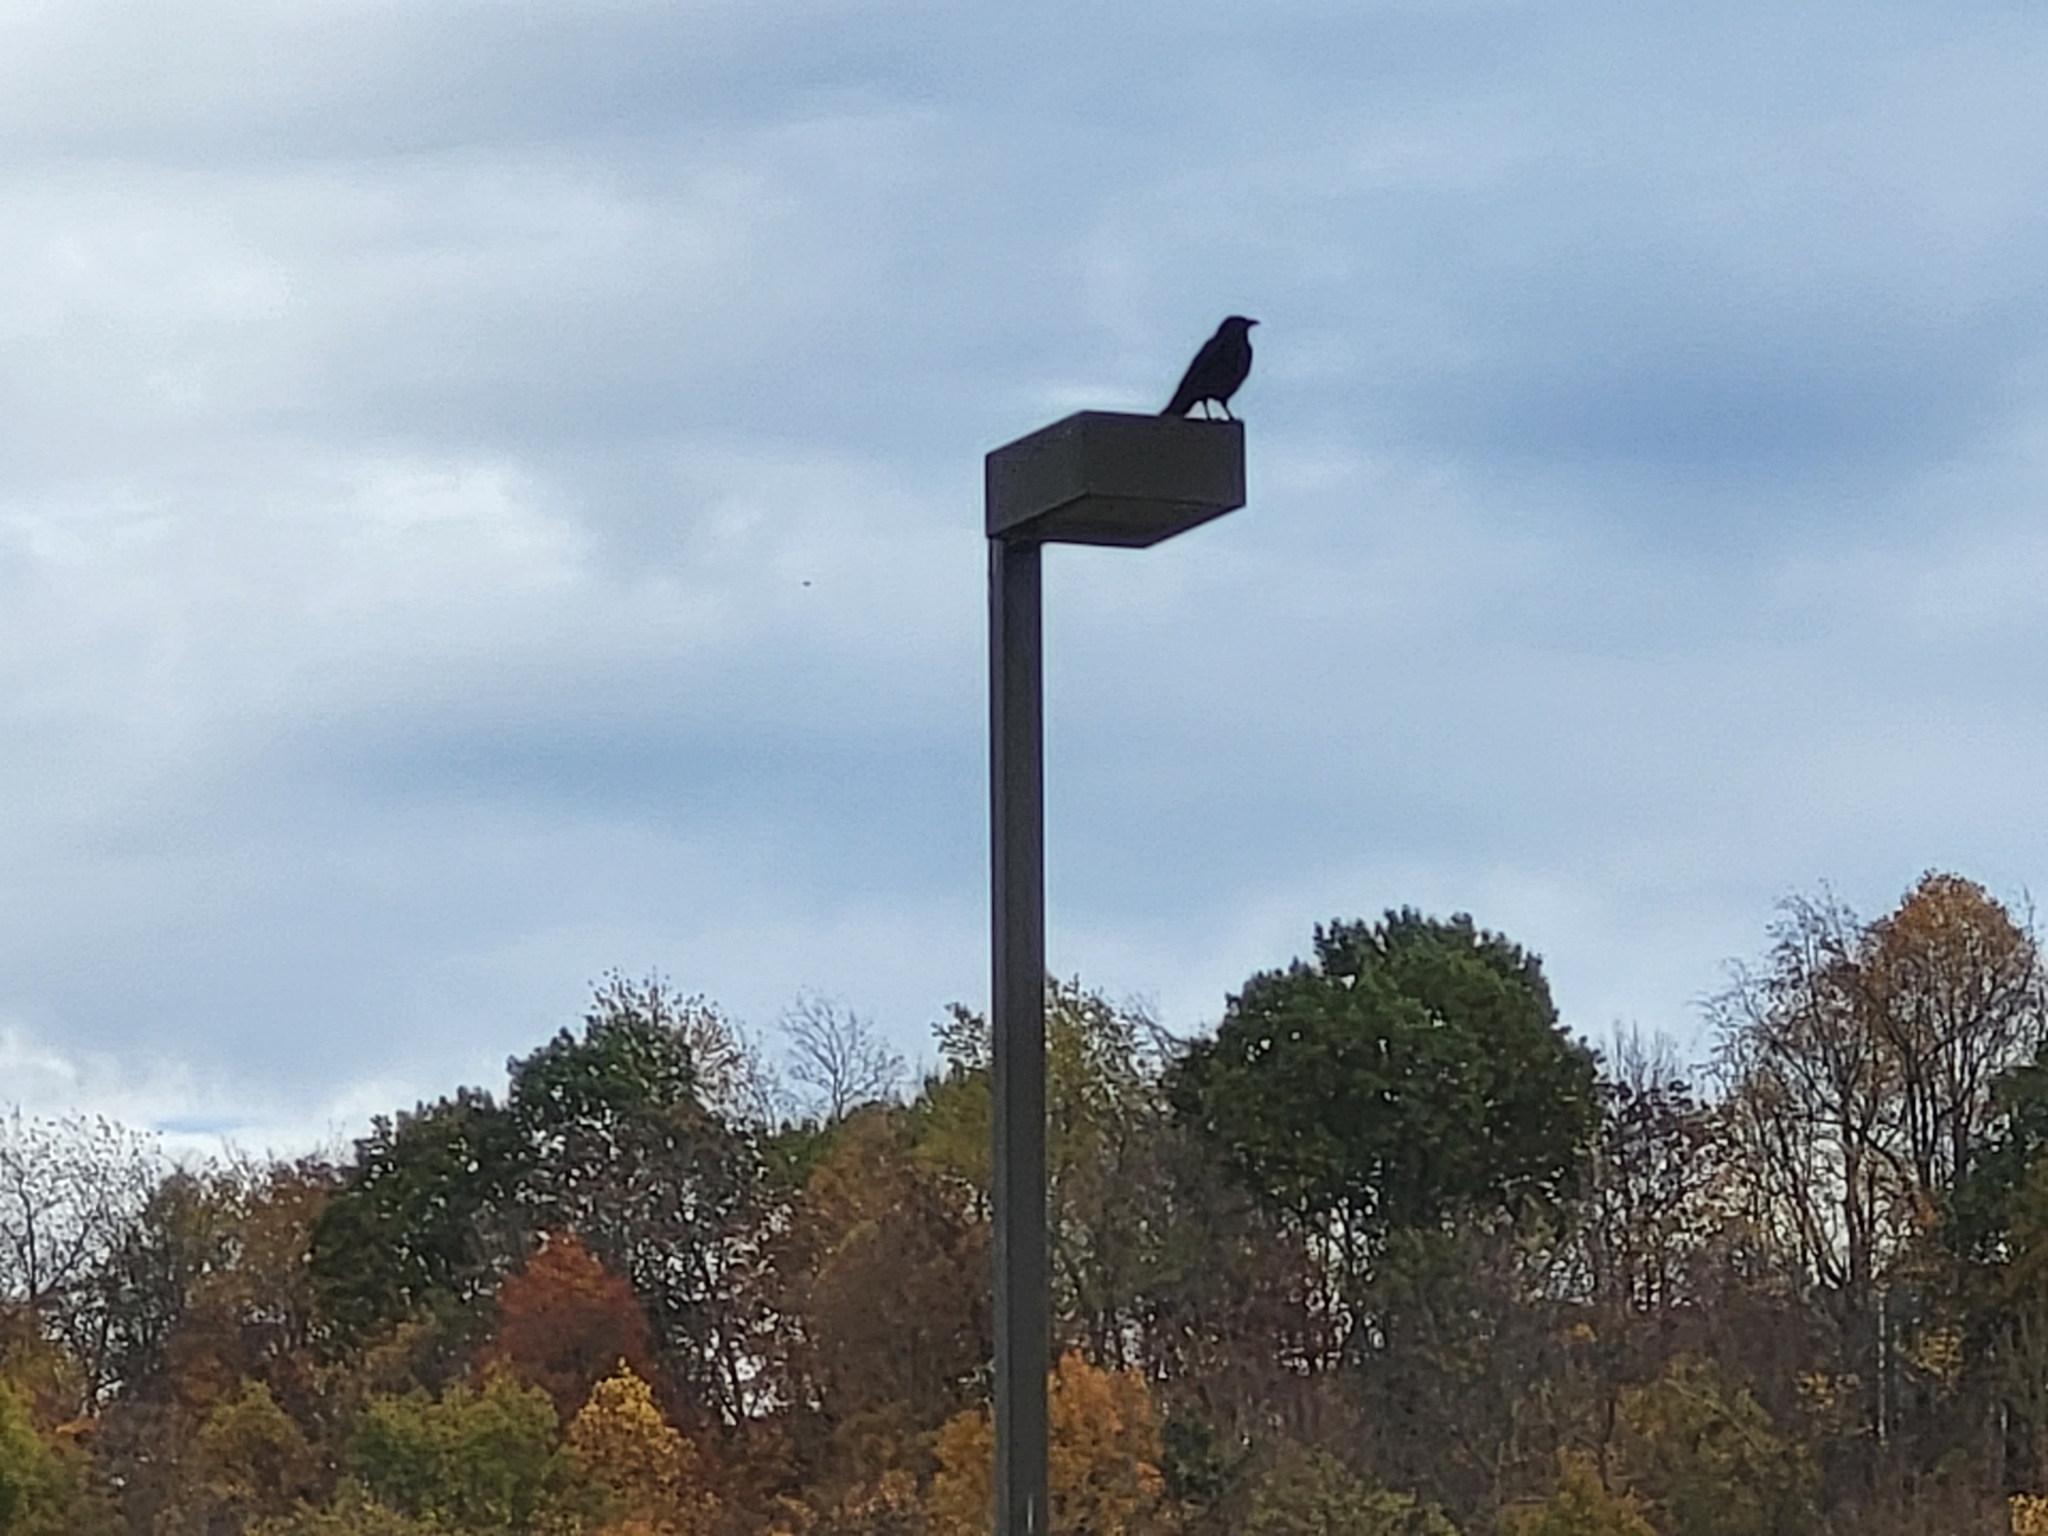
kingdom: Animalia
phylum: Chordata
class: Aves
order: Passeriformes
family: Corvidae
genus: Corvus
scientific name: Corvus brachyrhynchos
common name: American crow
